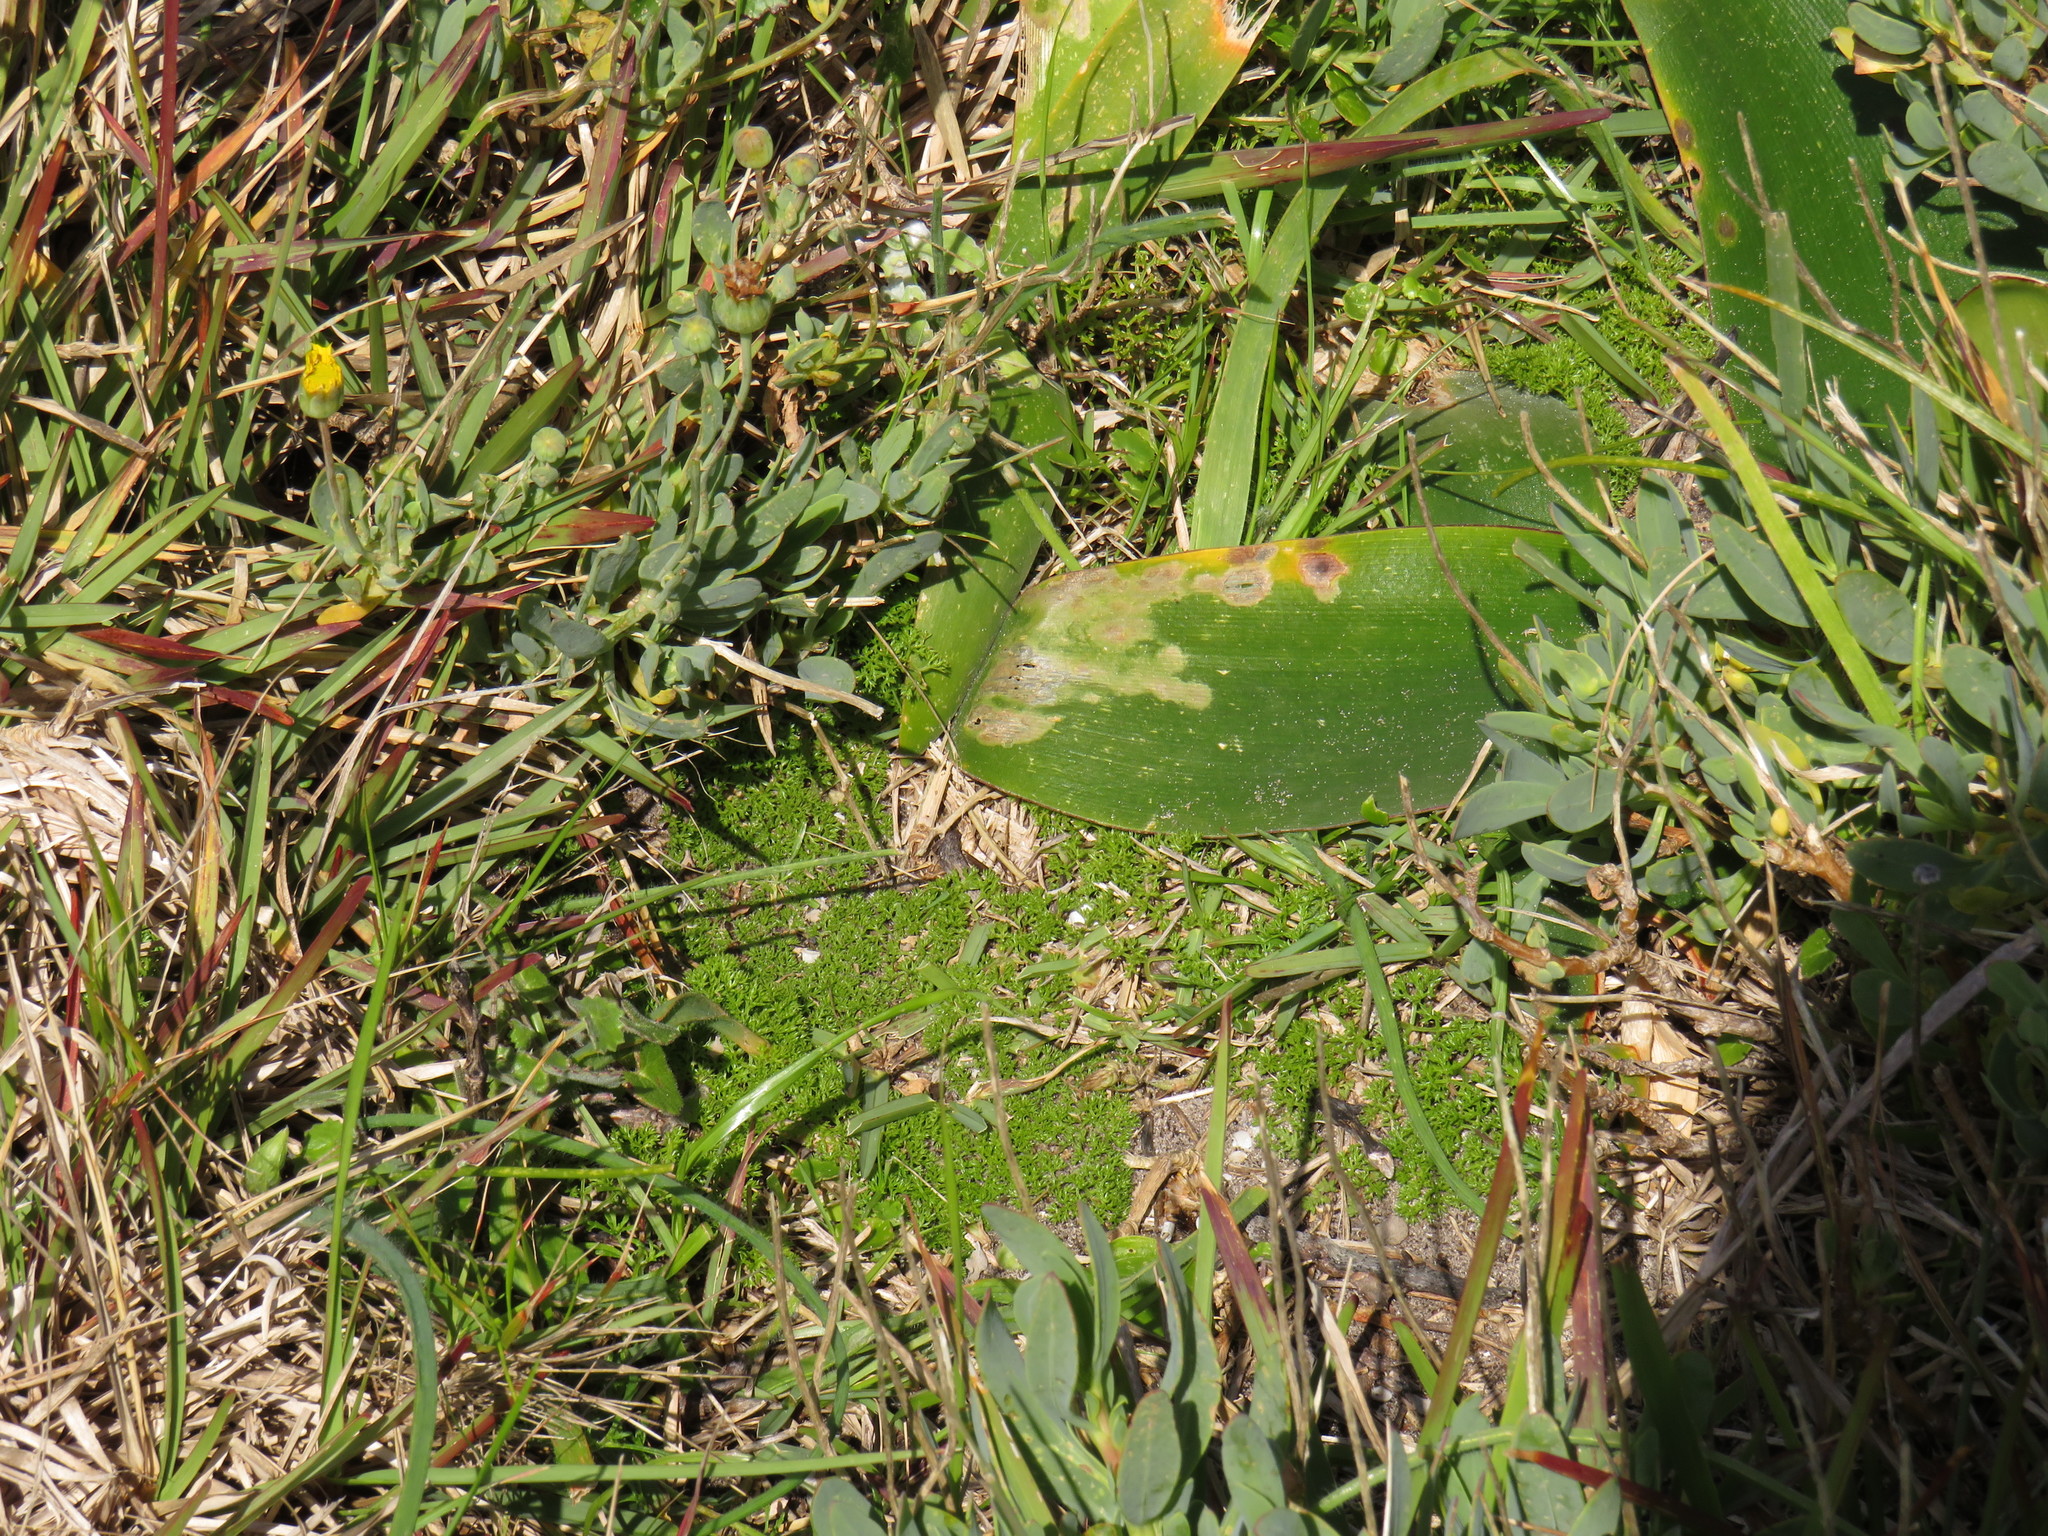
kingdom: Plantae
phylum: Tracheophyta
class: Magnoliopsida
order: Apiales
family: Apiaceae
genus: Annesorhiza
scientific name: Annesorhiza macrocarpa
